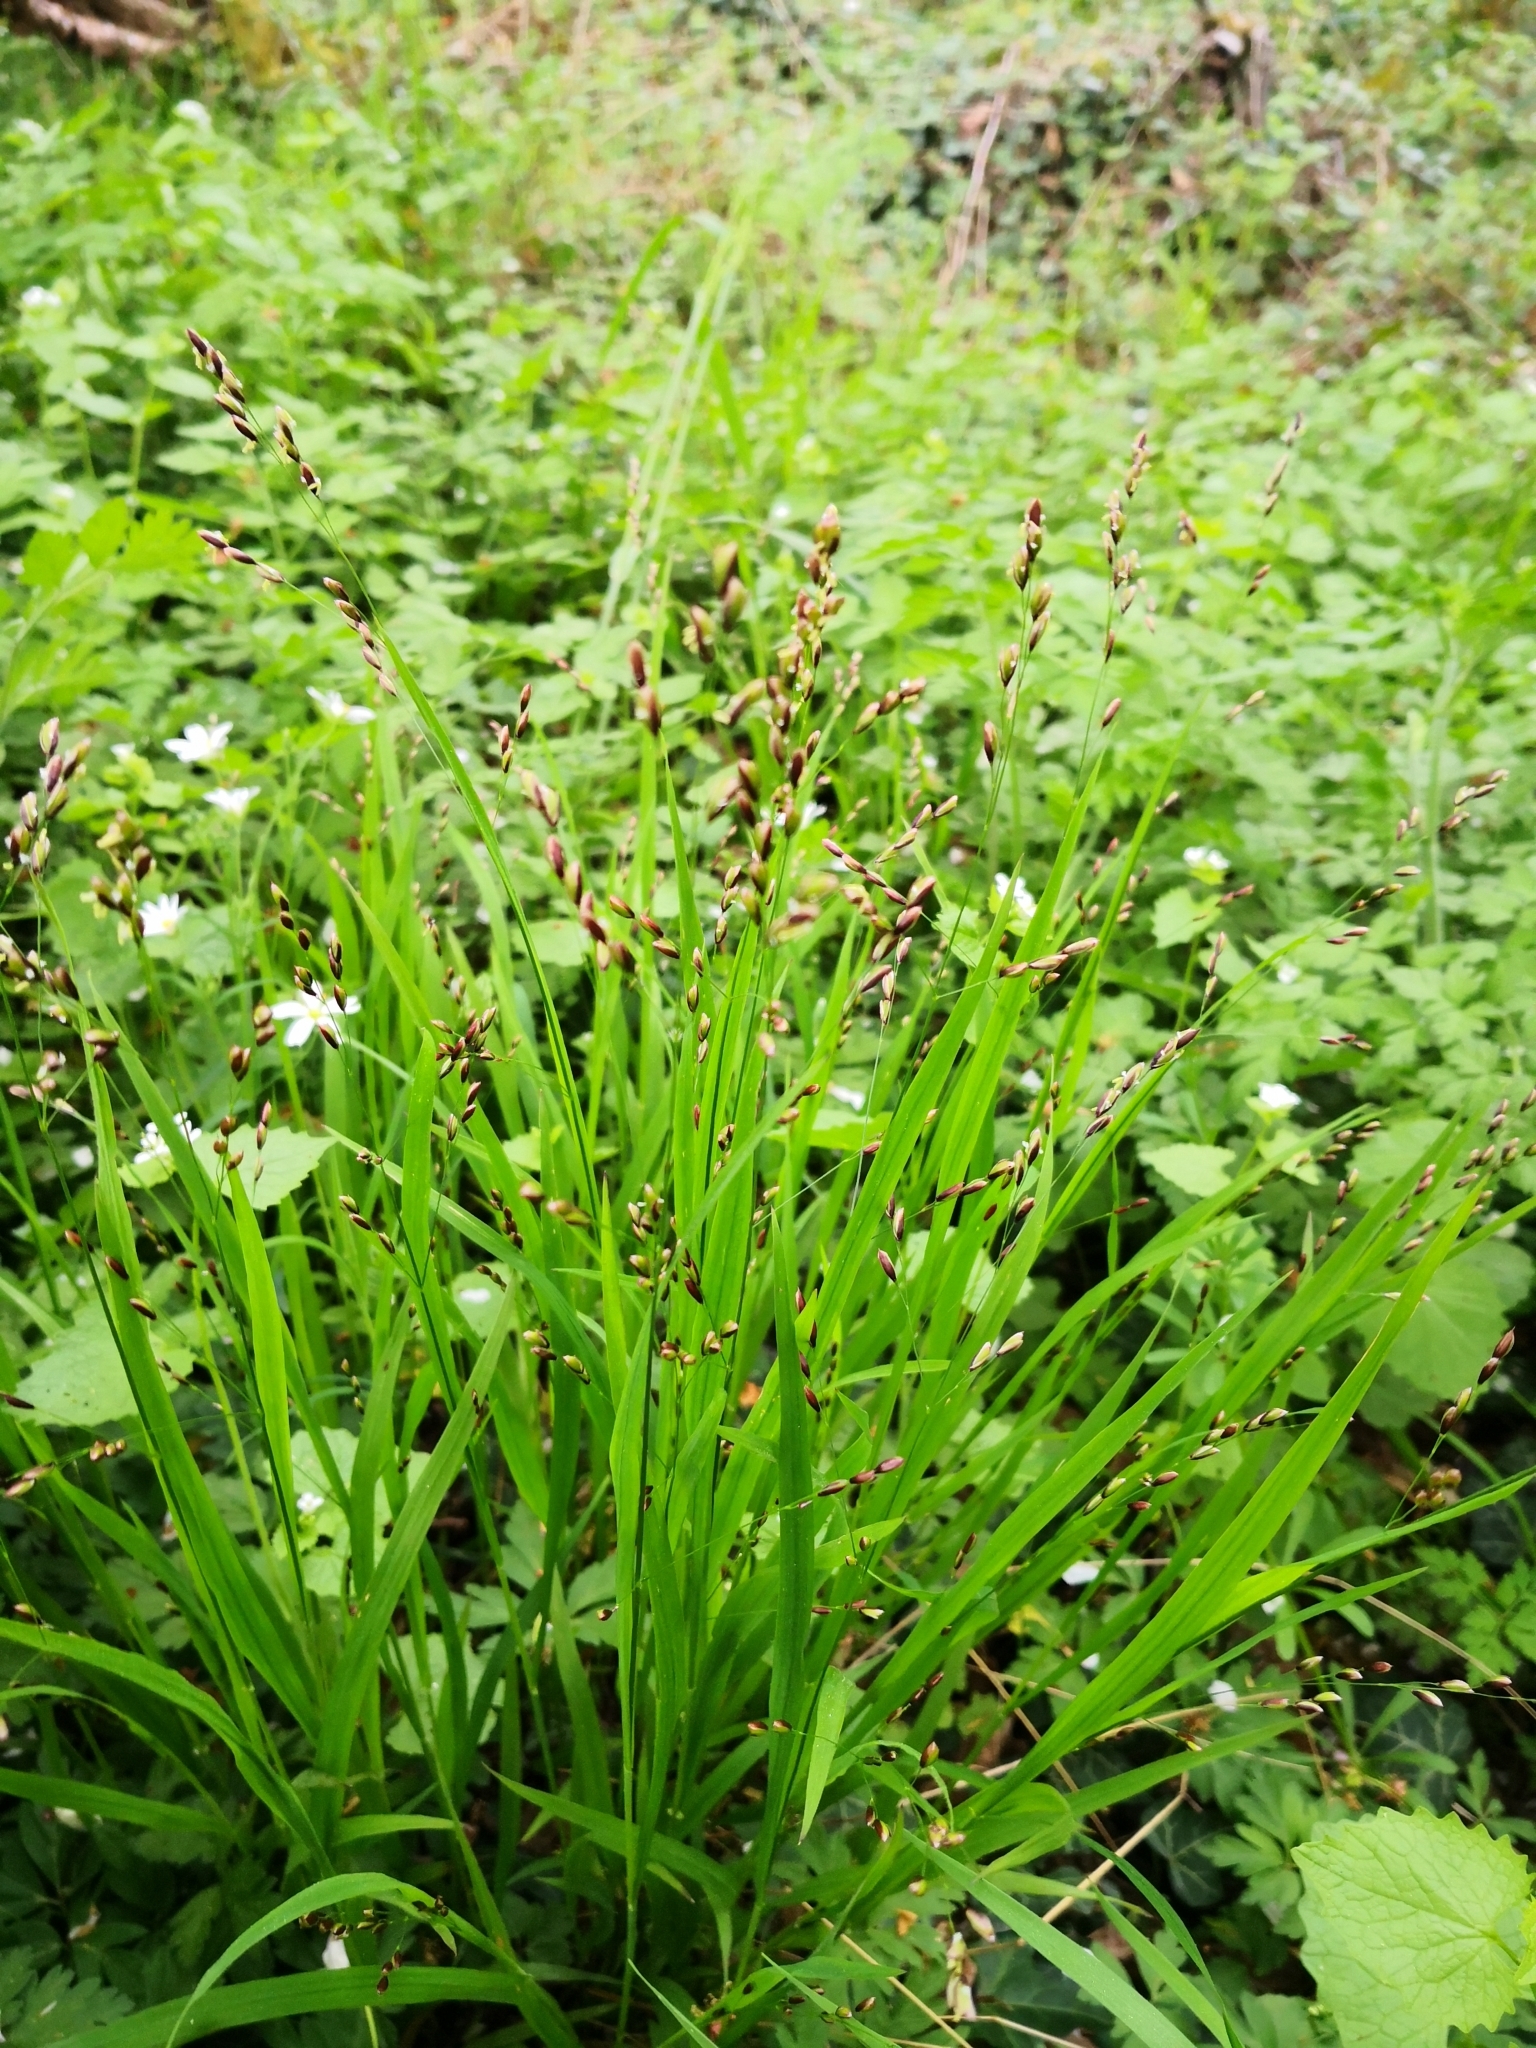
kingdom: Plantae
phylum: Tracheophyta
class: Liliopsida
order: Poales
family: Poaceae
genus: Melica
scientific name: Melica uniflora
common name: Wood melick
